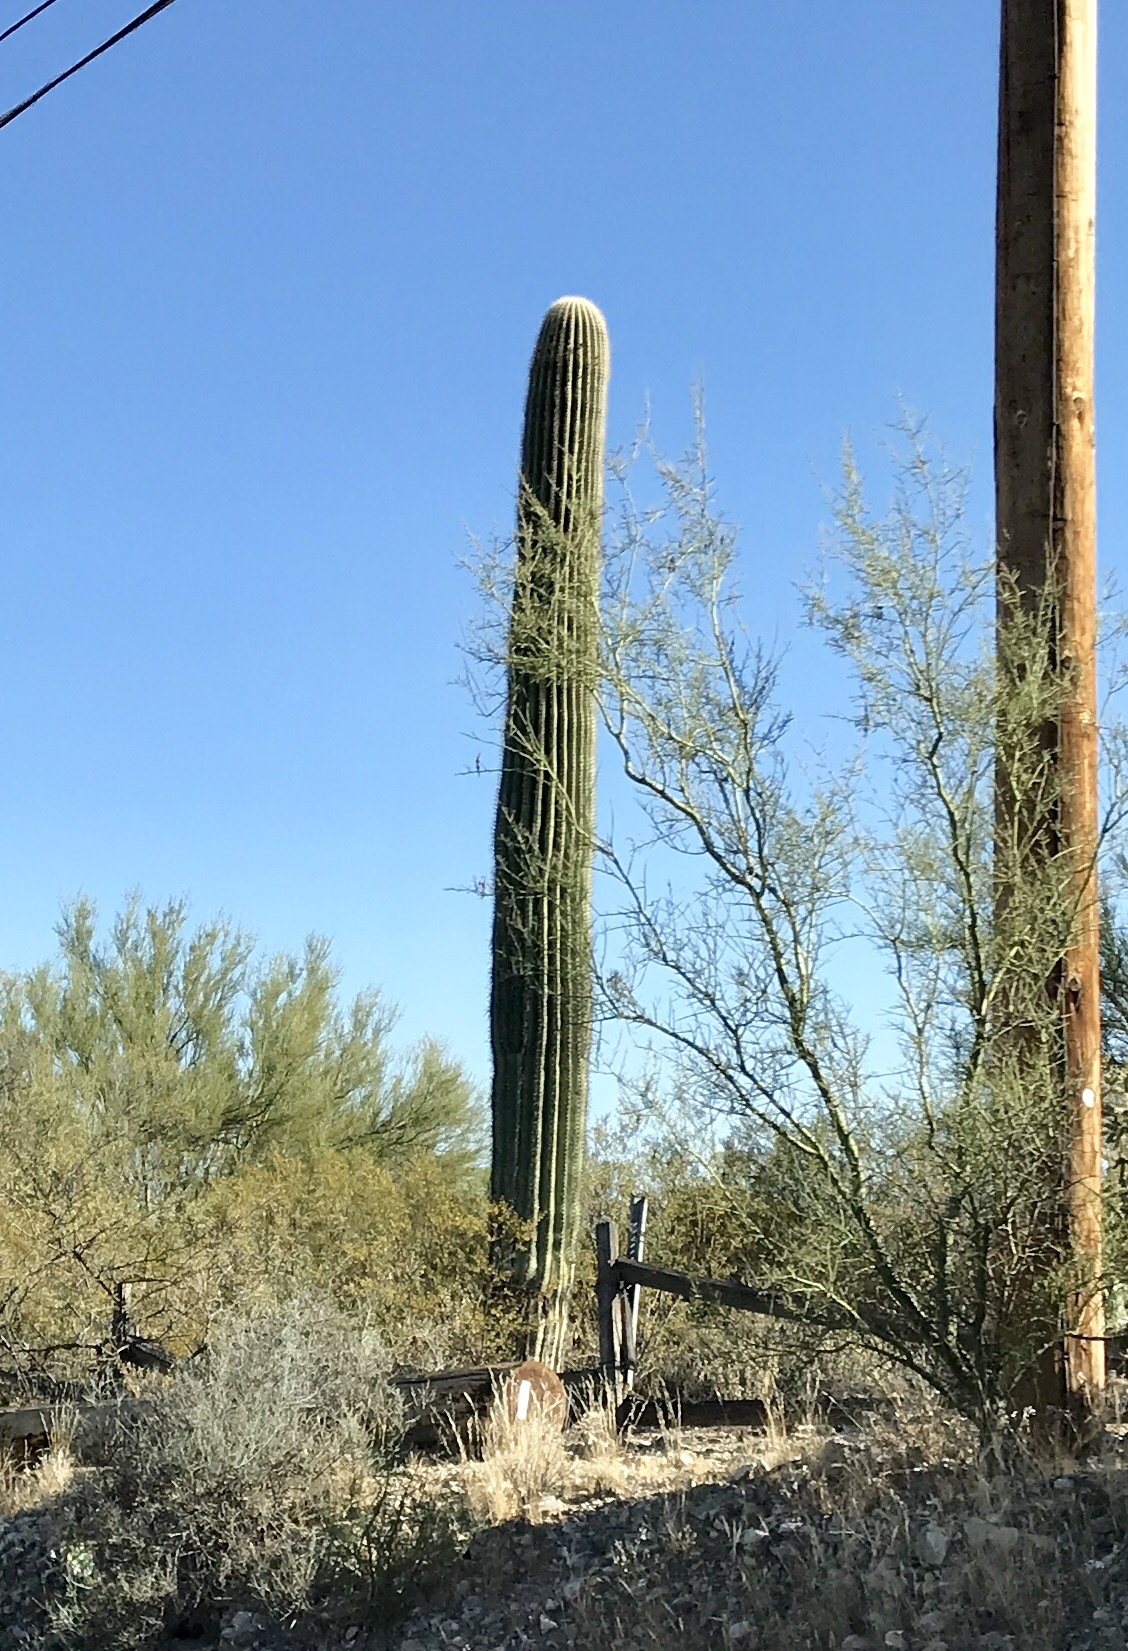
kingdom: Plantae
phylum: Tracheophyta
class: Magnoliopsida
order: Caryophyllales
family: Cactaceae
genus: Carnegiea
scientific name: Carnegiea gigantea
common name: Saguaro
